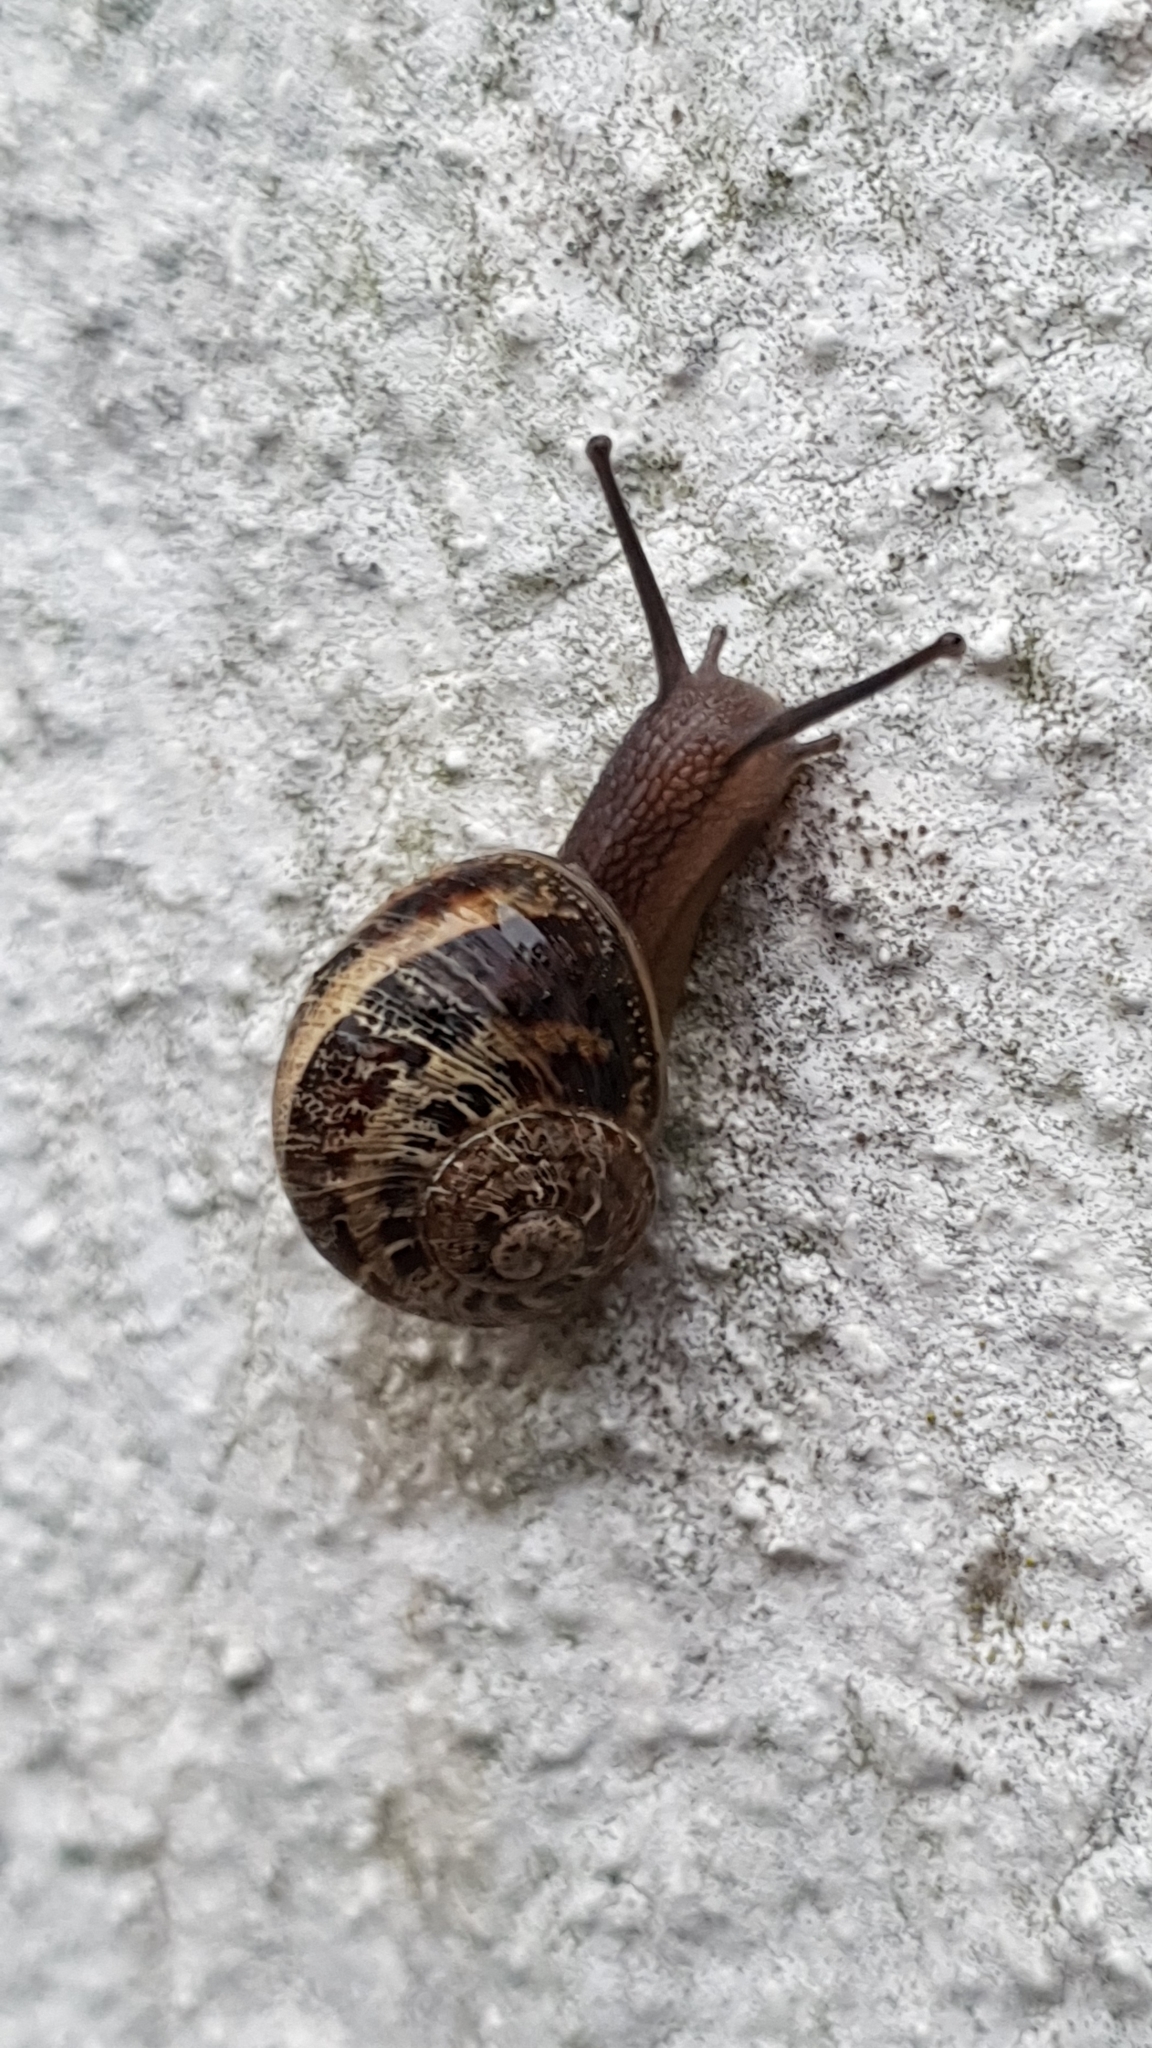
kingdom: Animalia
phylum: Mollusca
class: Gastropoda
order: Stylommatophora
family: Helicidae
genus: Cornu
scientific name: Cornu aspersum
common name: Brown garden snail
